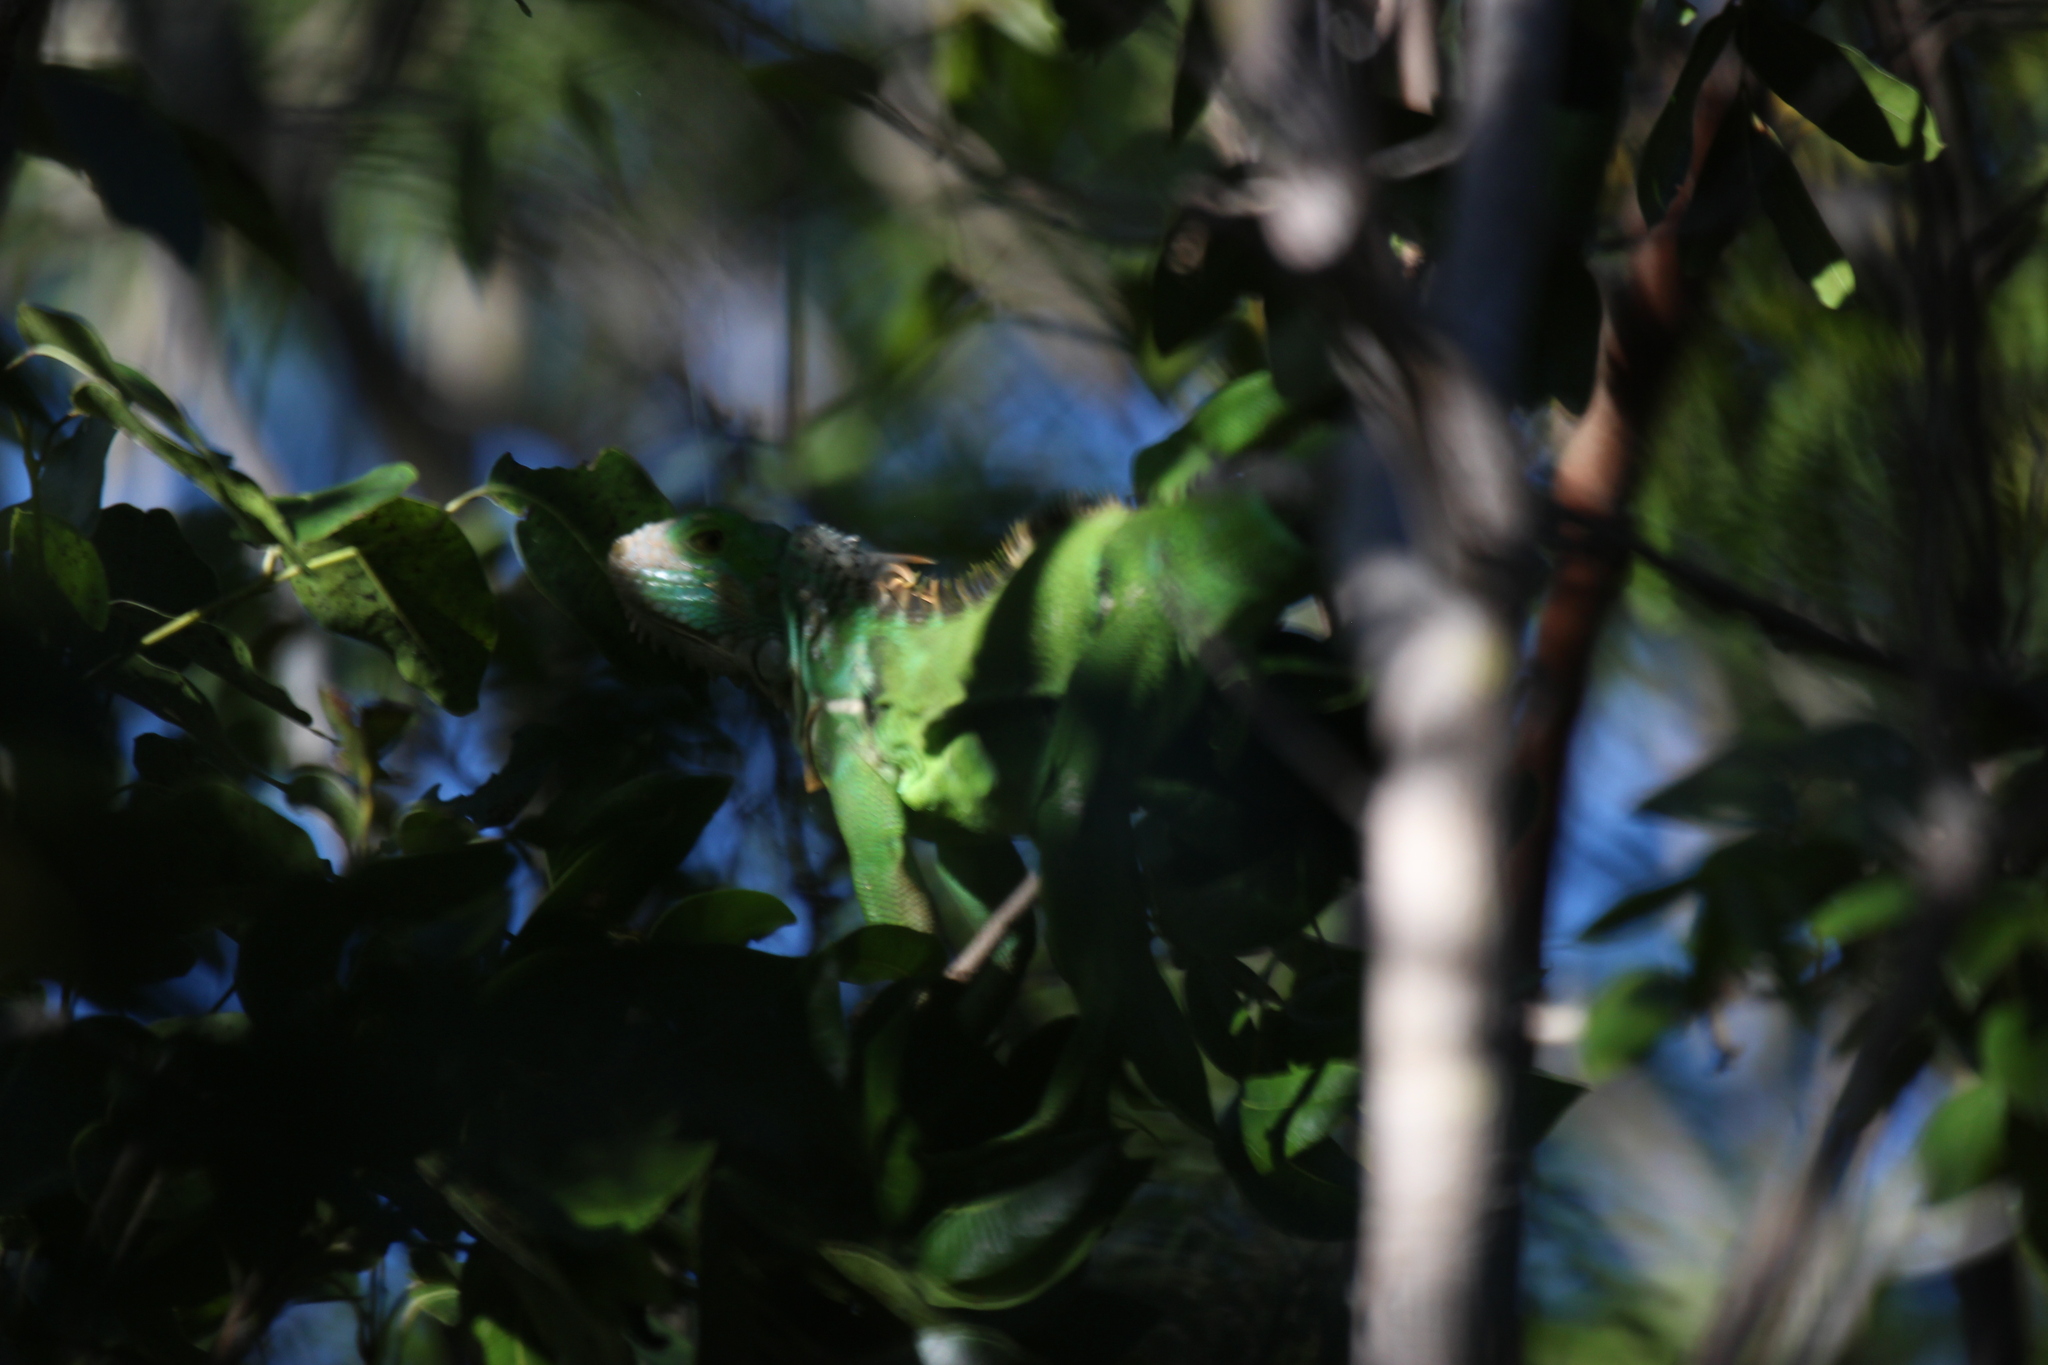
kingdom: Animalia
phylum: Chordata
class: Squamata
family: Iguanidae
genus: Iguana
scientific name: Iguana iguana
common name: Green iguana
